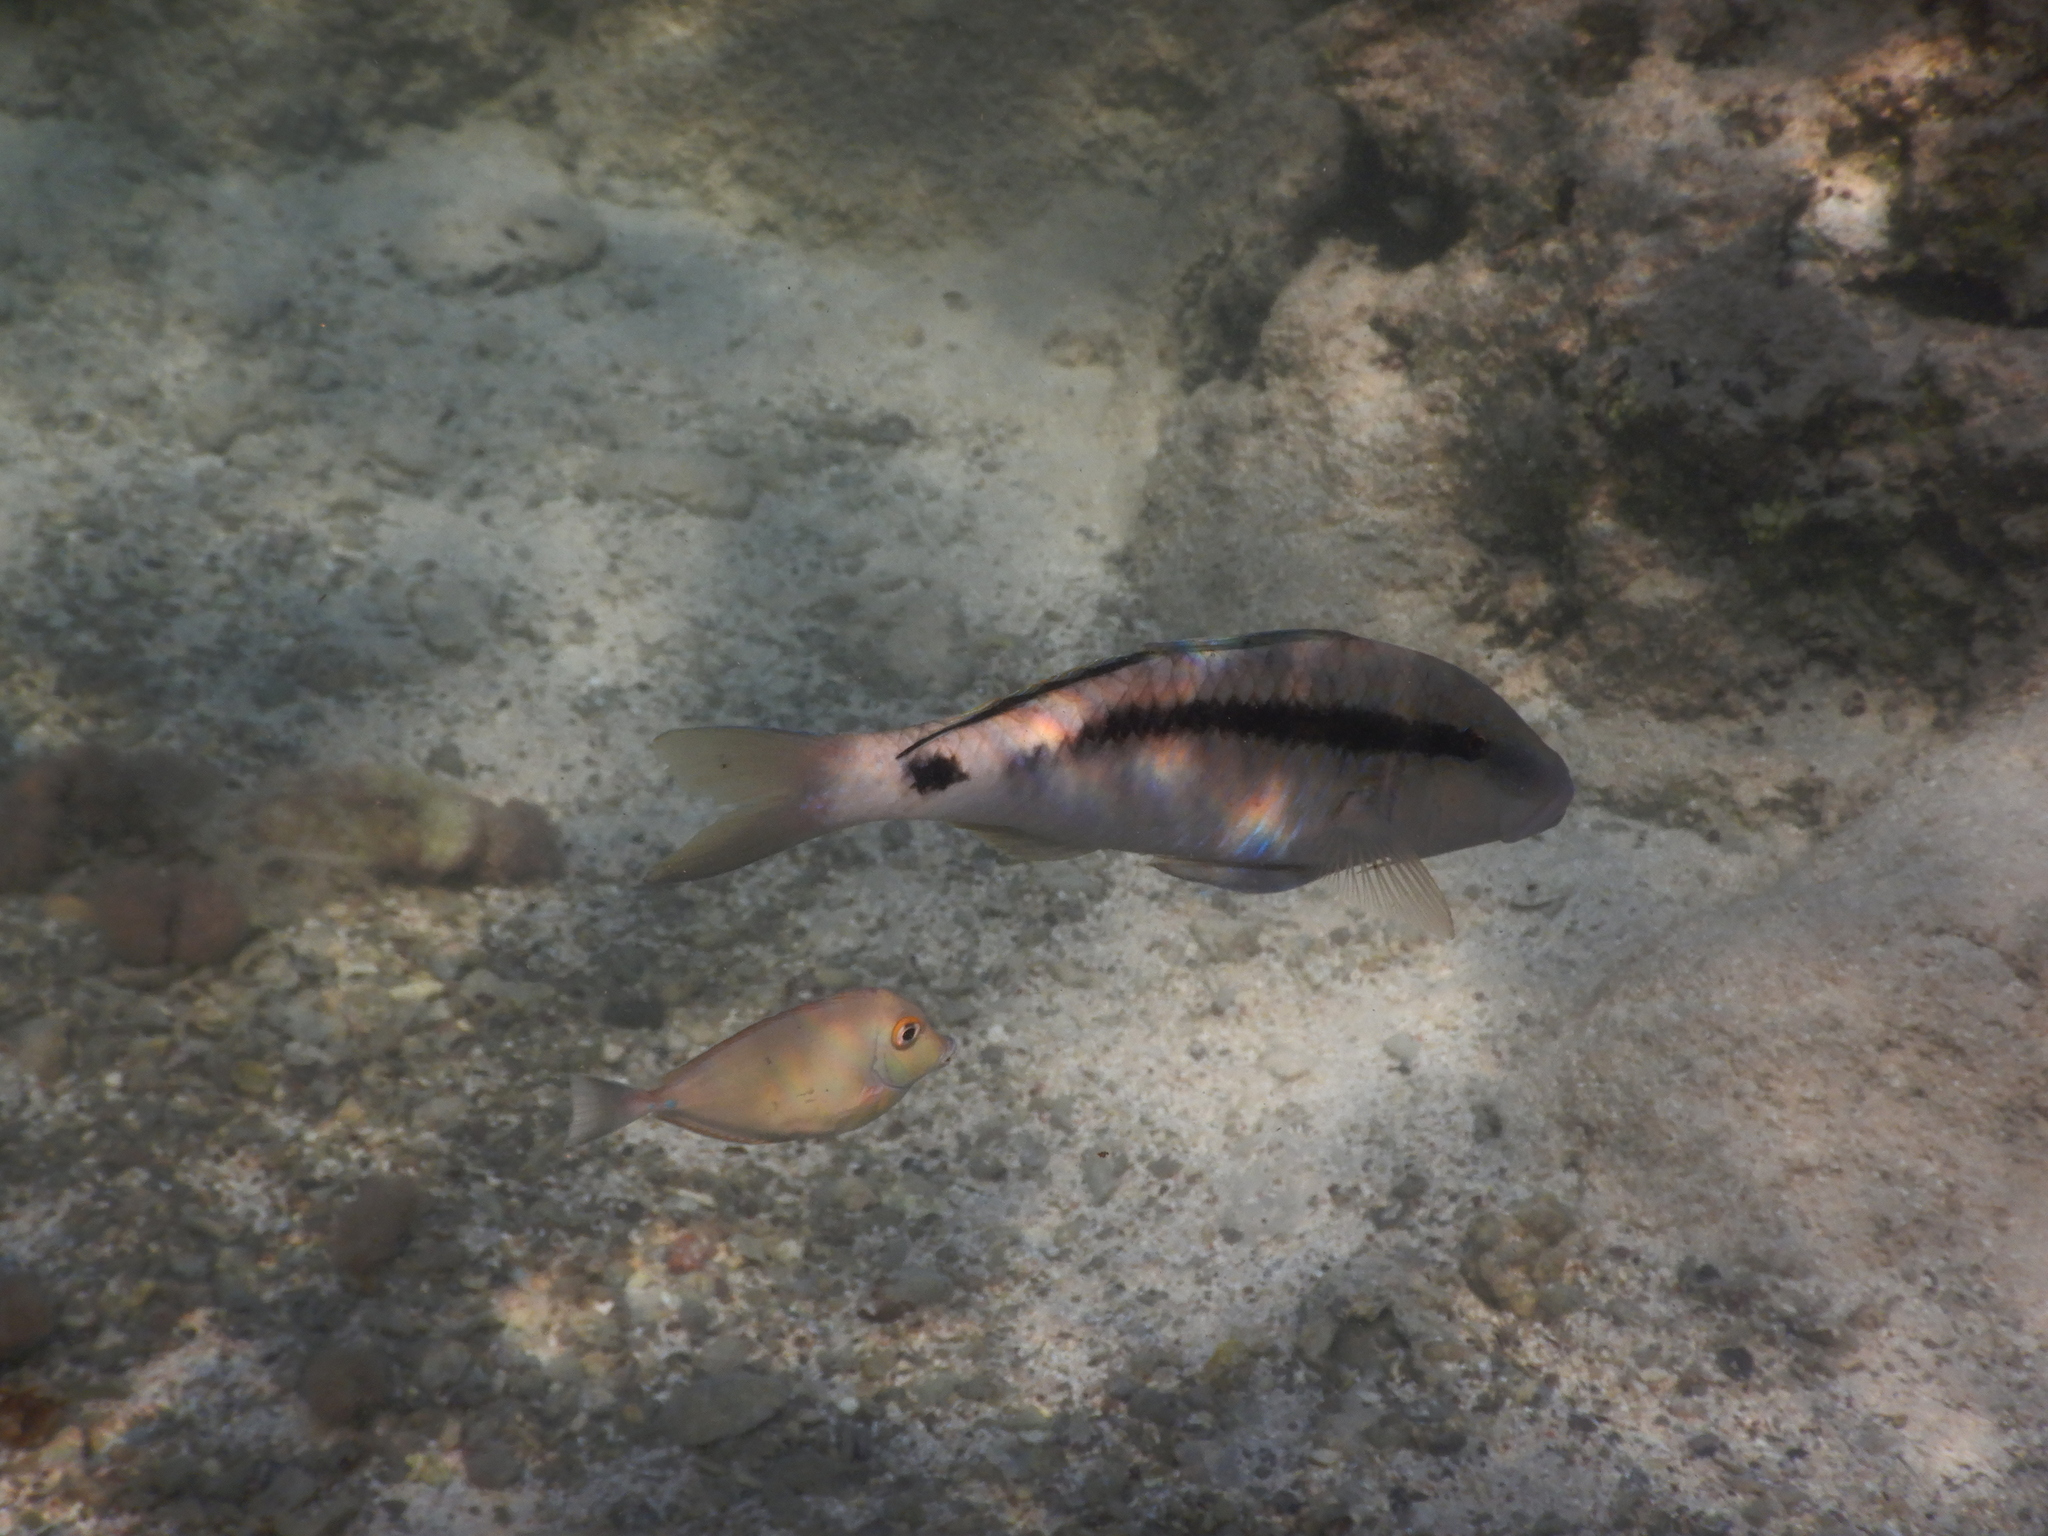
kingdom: Animalia
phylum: Chordata
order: Perciformes
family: Mullidae
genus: Parupeneus
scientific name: Parupeneus macronemus
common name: Long-barbel goatfish
